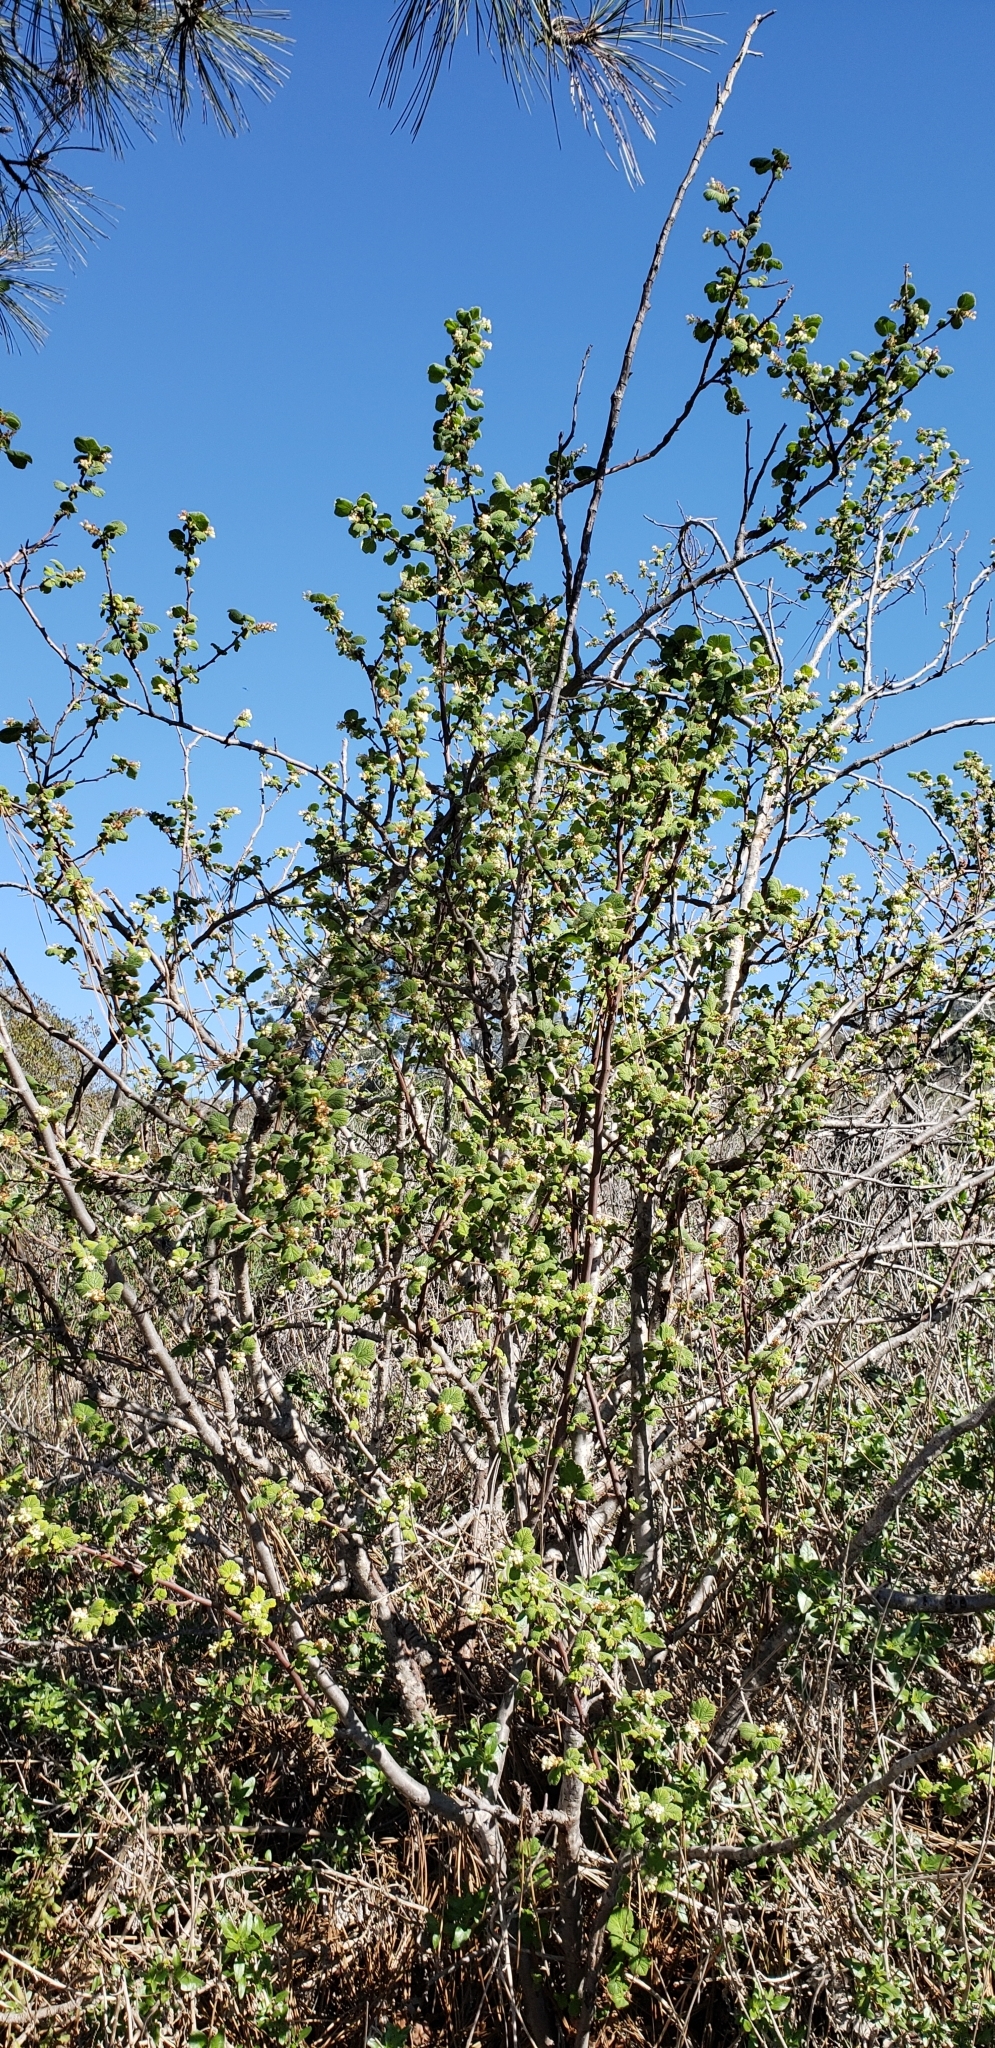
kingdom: Plantae
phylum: Tracheophyta
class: Magnoliopsida
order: Saxifragales
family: Grossulariaceae
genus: Ribes
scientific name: Ribes indecorum
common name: White-flower currant
